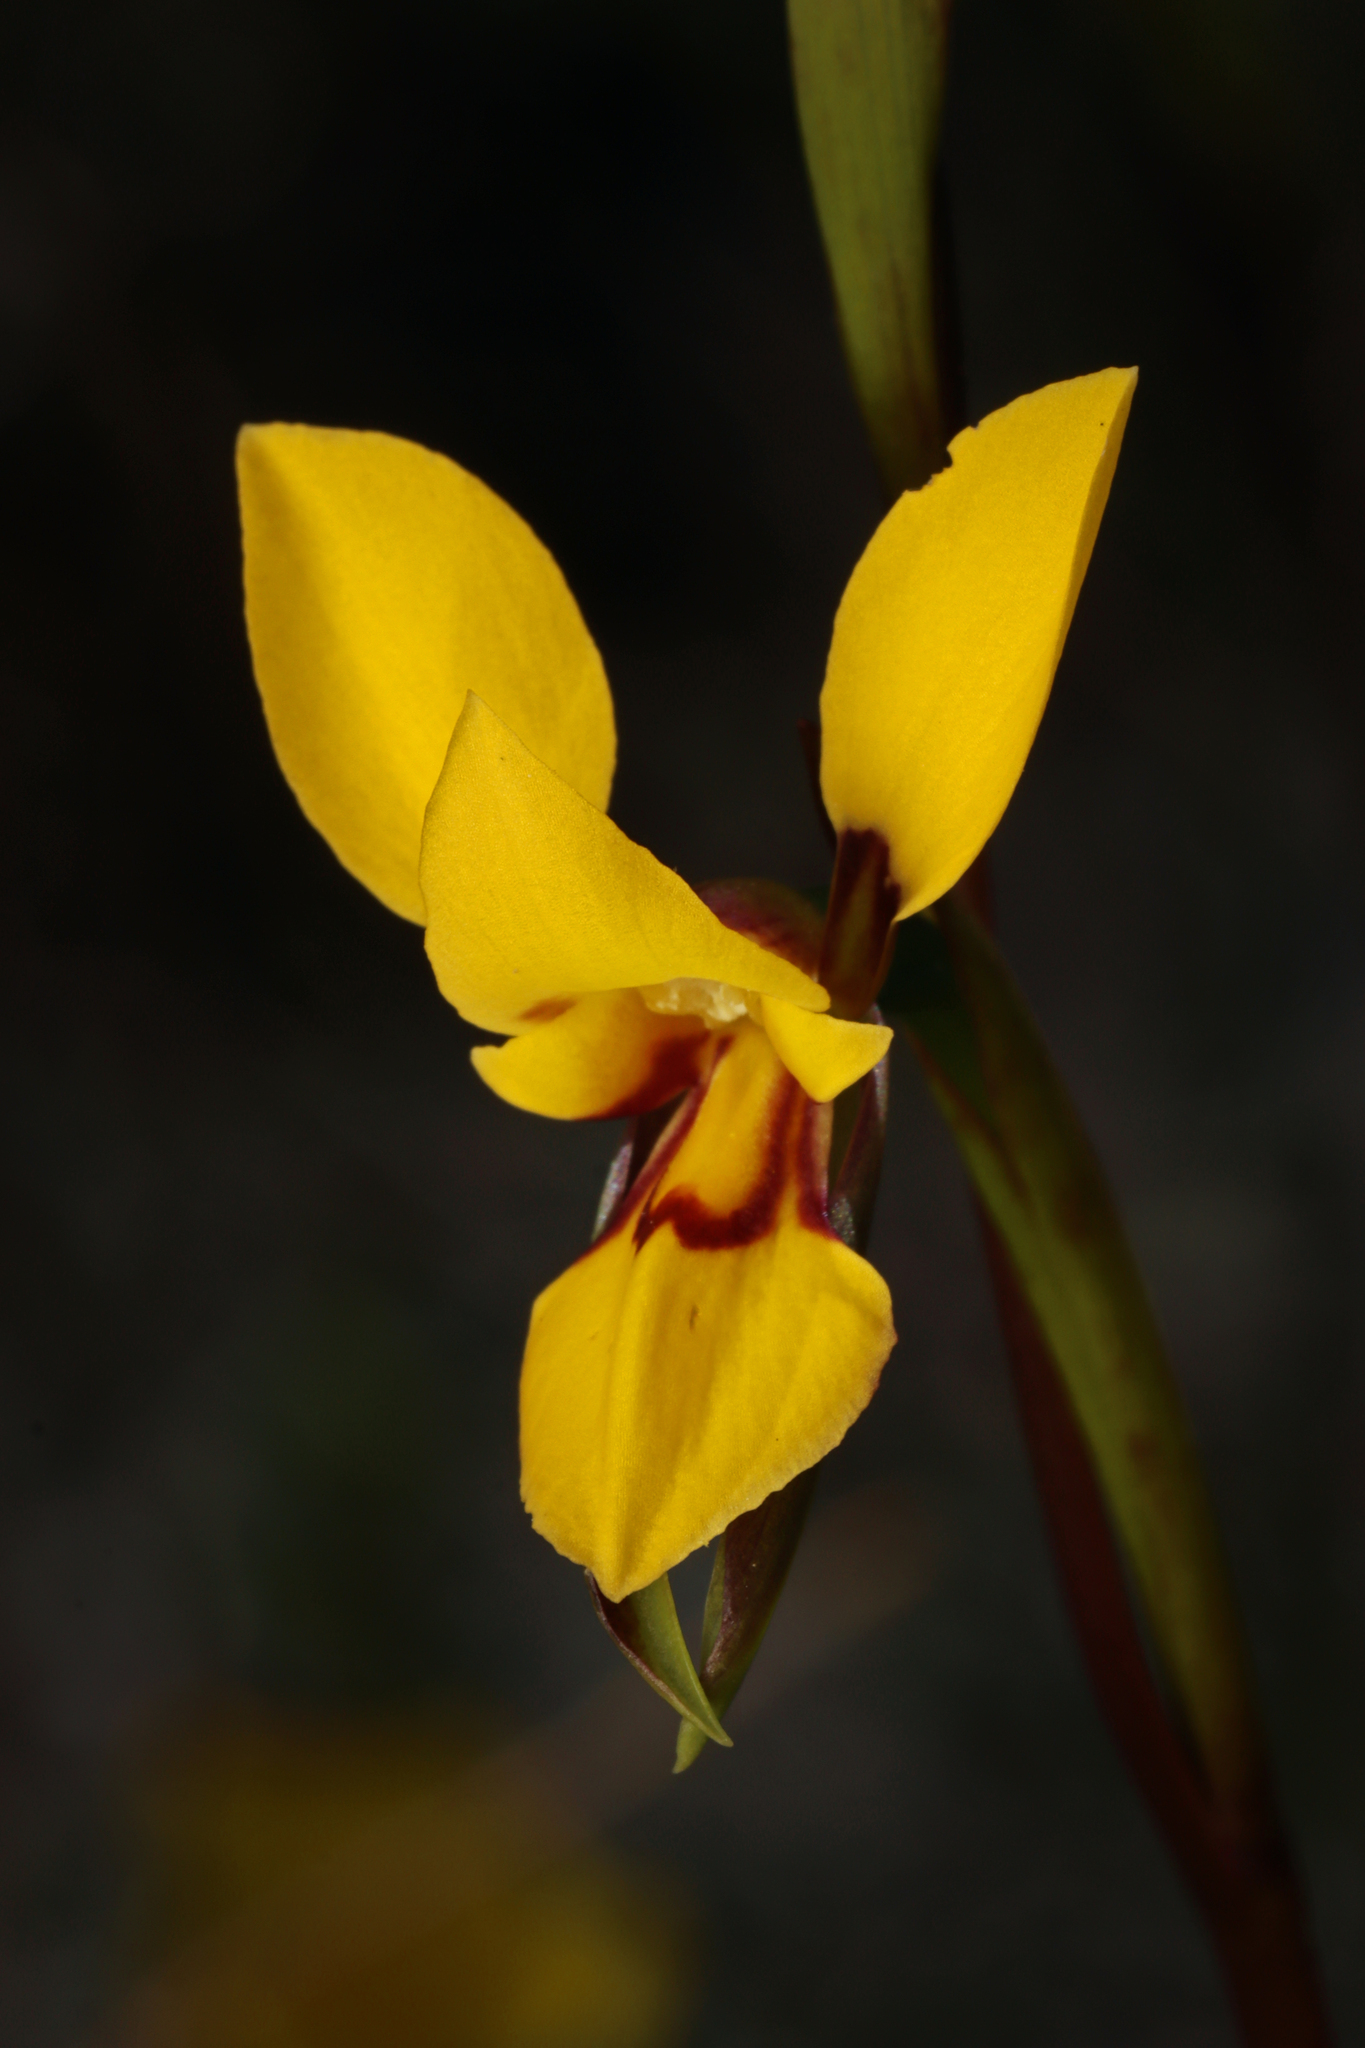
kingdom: Plantae
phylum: Tracheophyta
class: Liliopsida
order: Asparagales
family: Orchidaceae
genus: Diuris
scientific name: Diuris brevifolia
